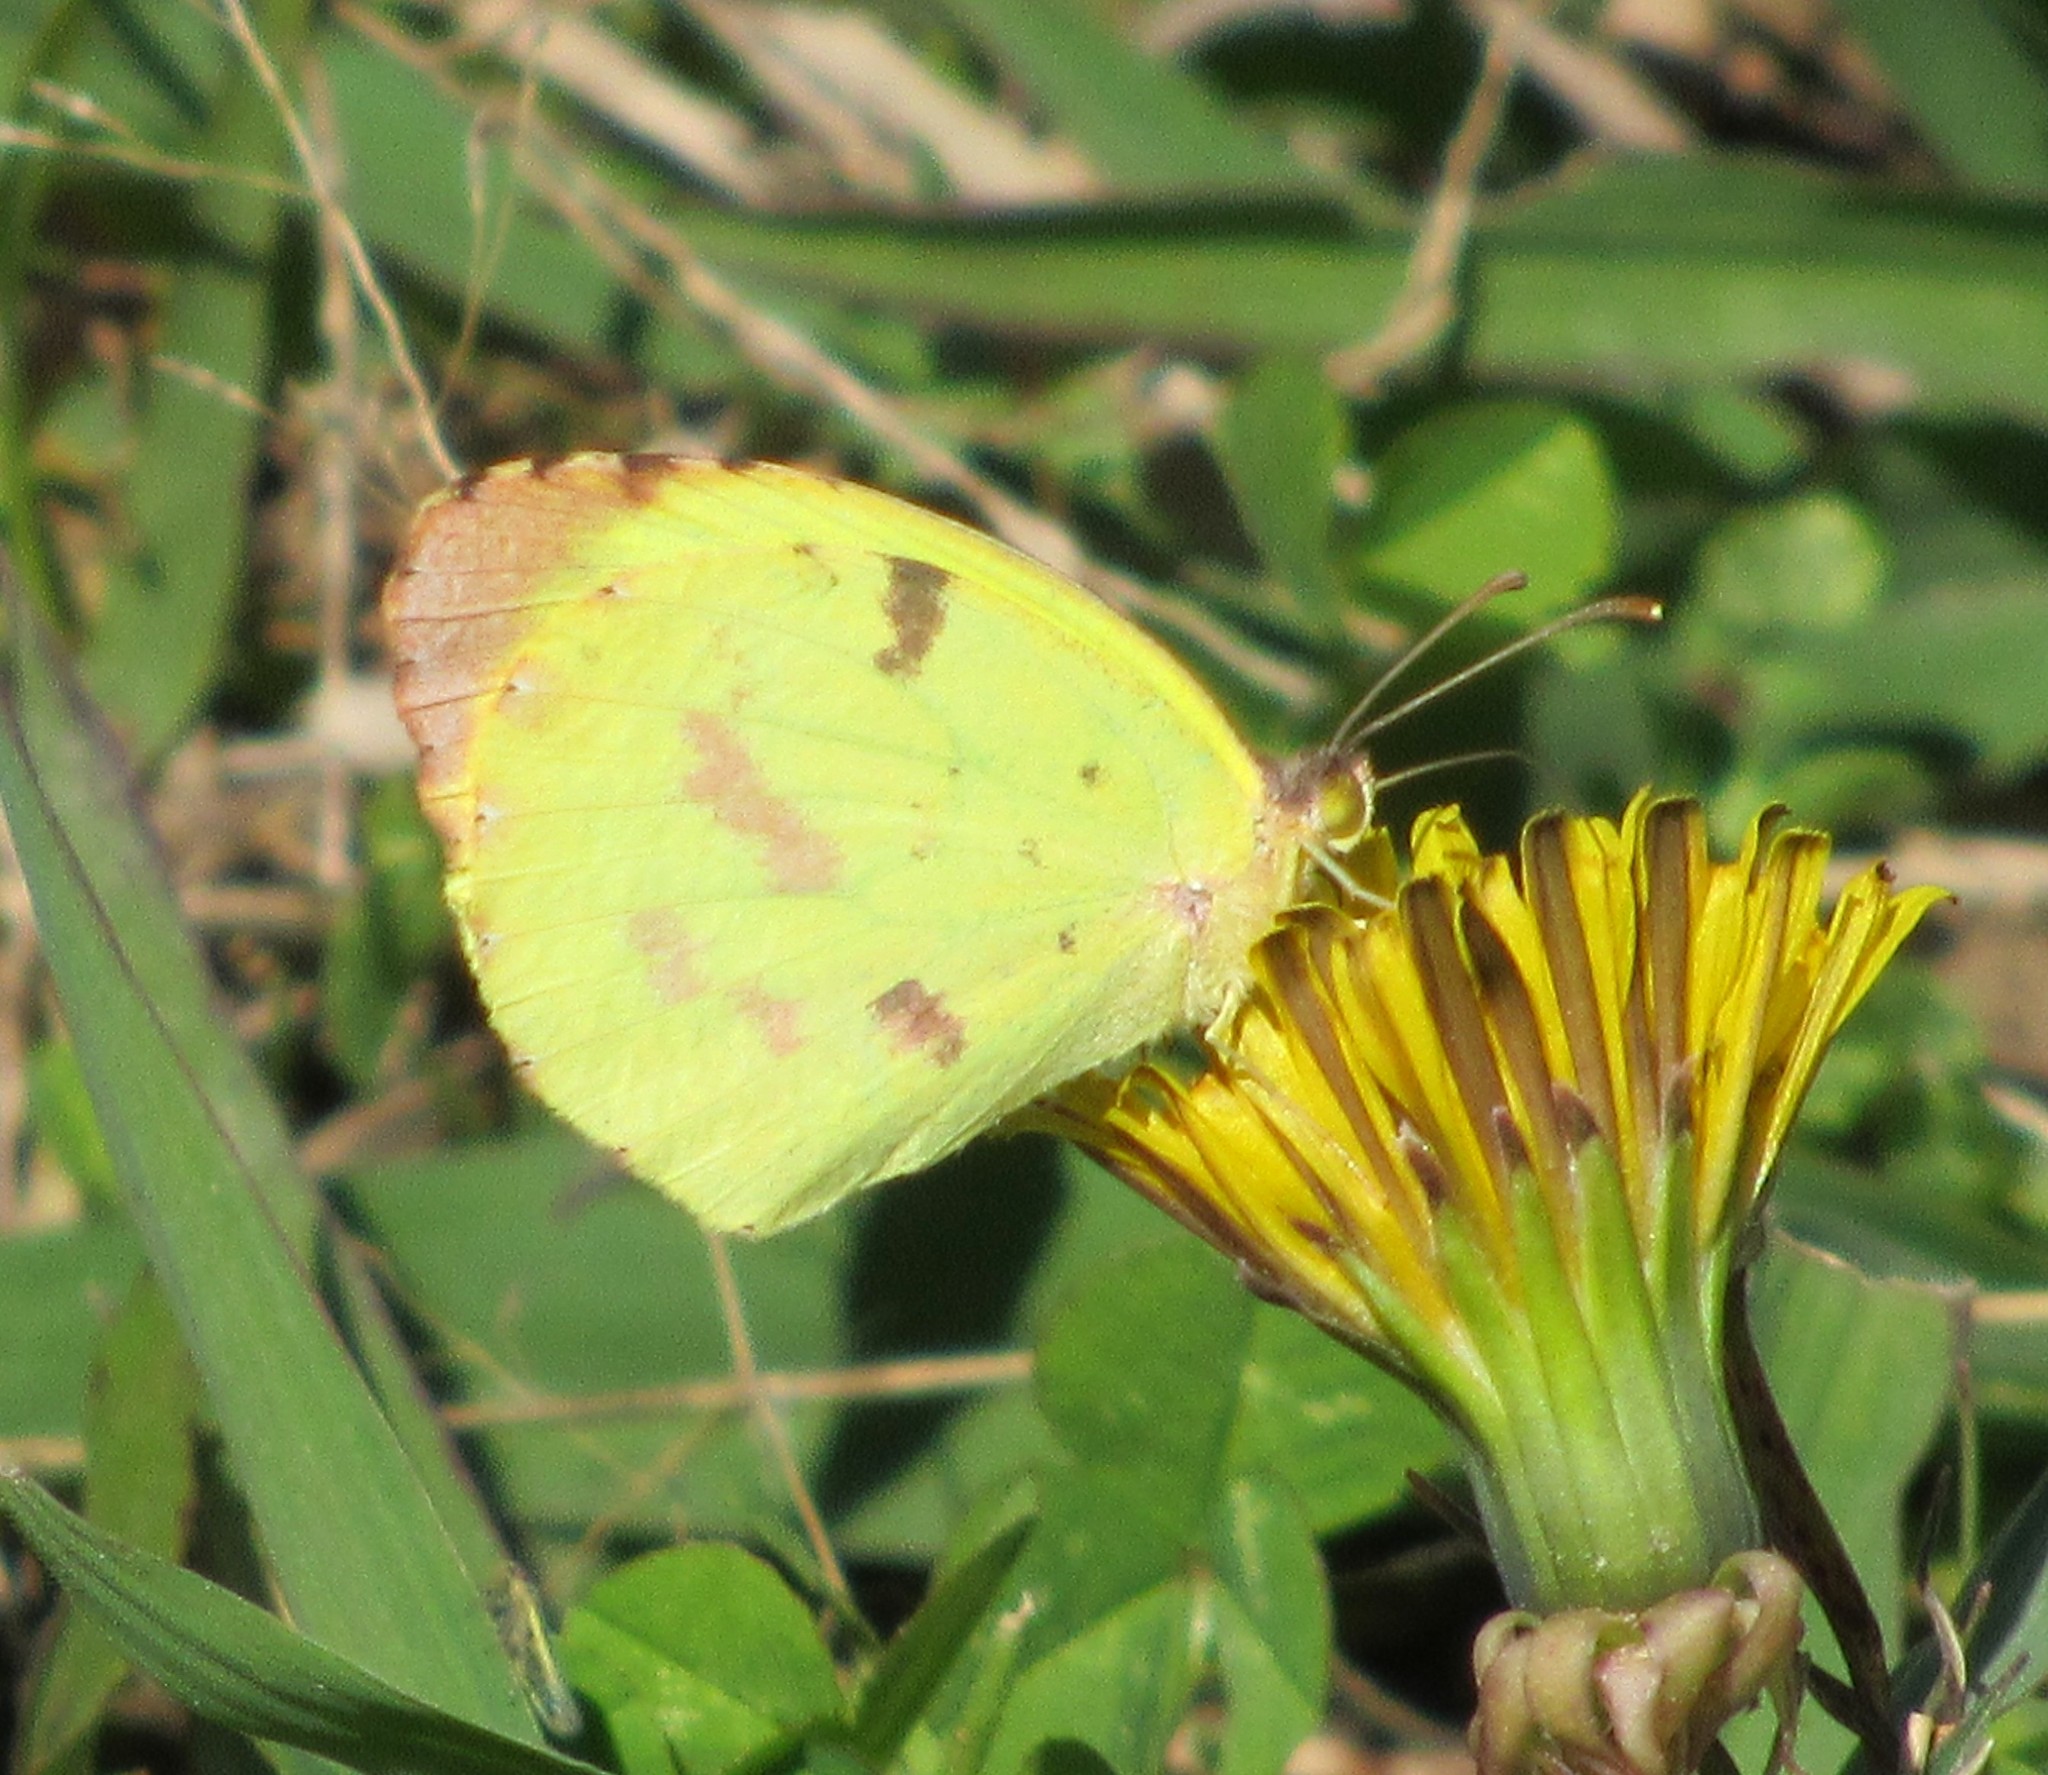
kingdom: Animalia
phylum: Arthropoda
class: Insecta
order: Lepidoptera
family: Pieridae
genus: Teriocolias
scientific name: Teriocolias
